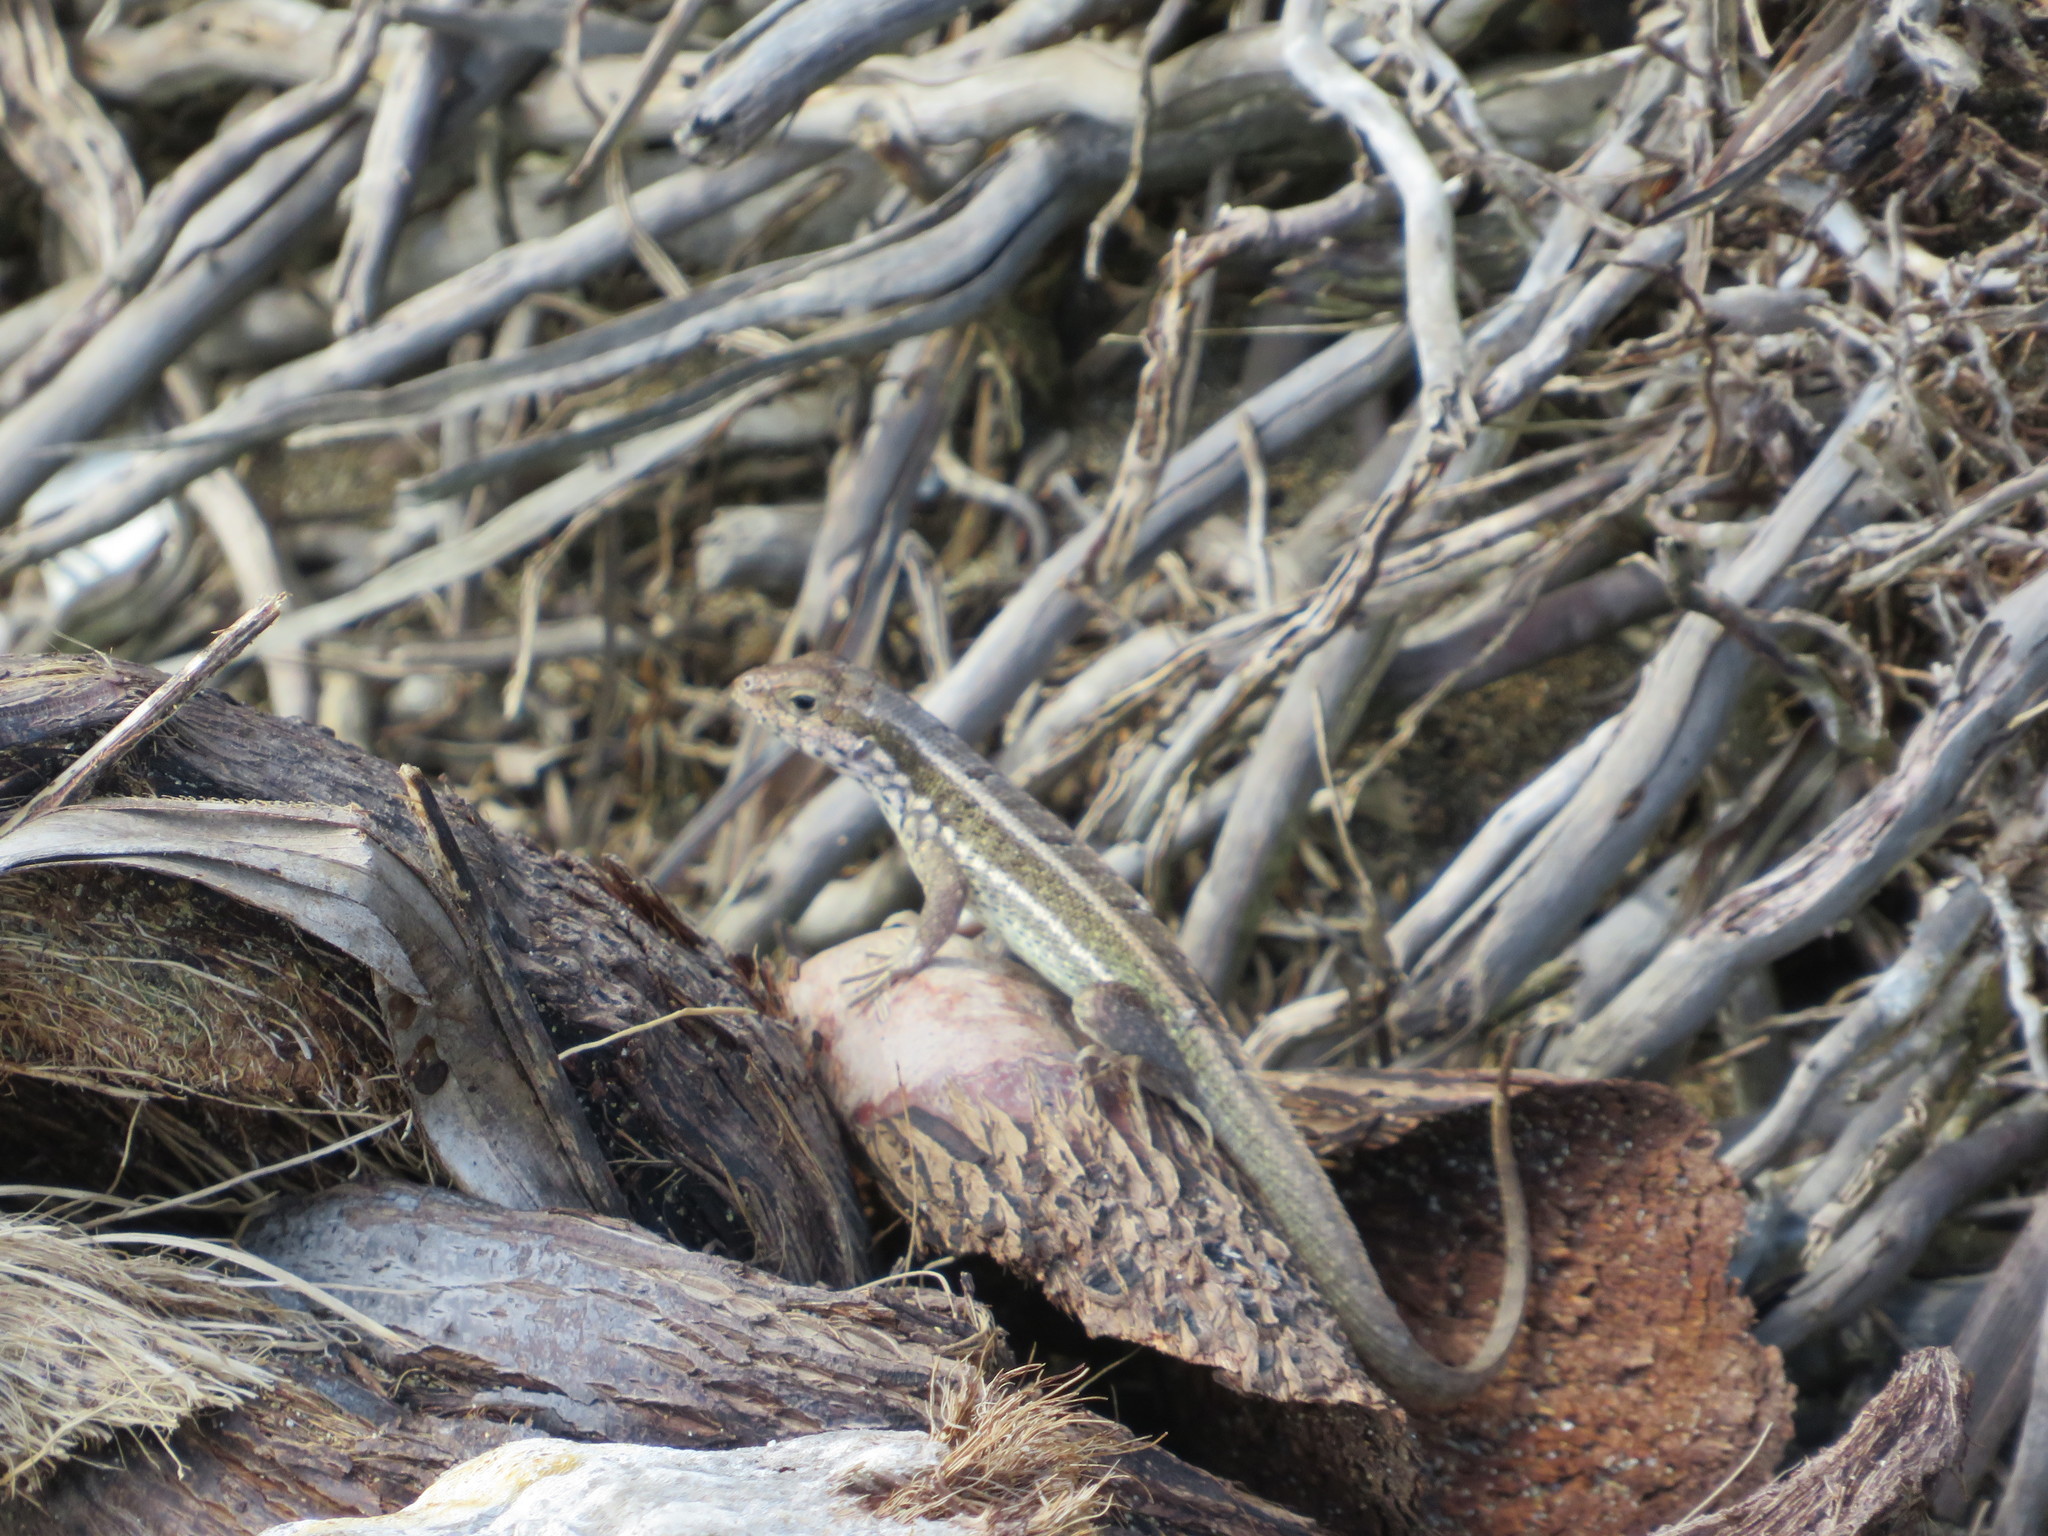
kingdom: Animalia
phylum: Chordata
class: Squamata
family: Leiocephalidae
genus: Leiocephalus
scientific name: Leiocephalus personatus
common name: Haitian curlytail lizard
